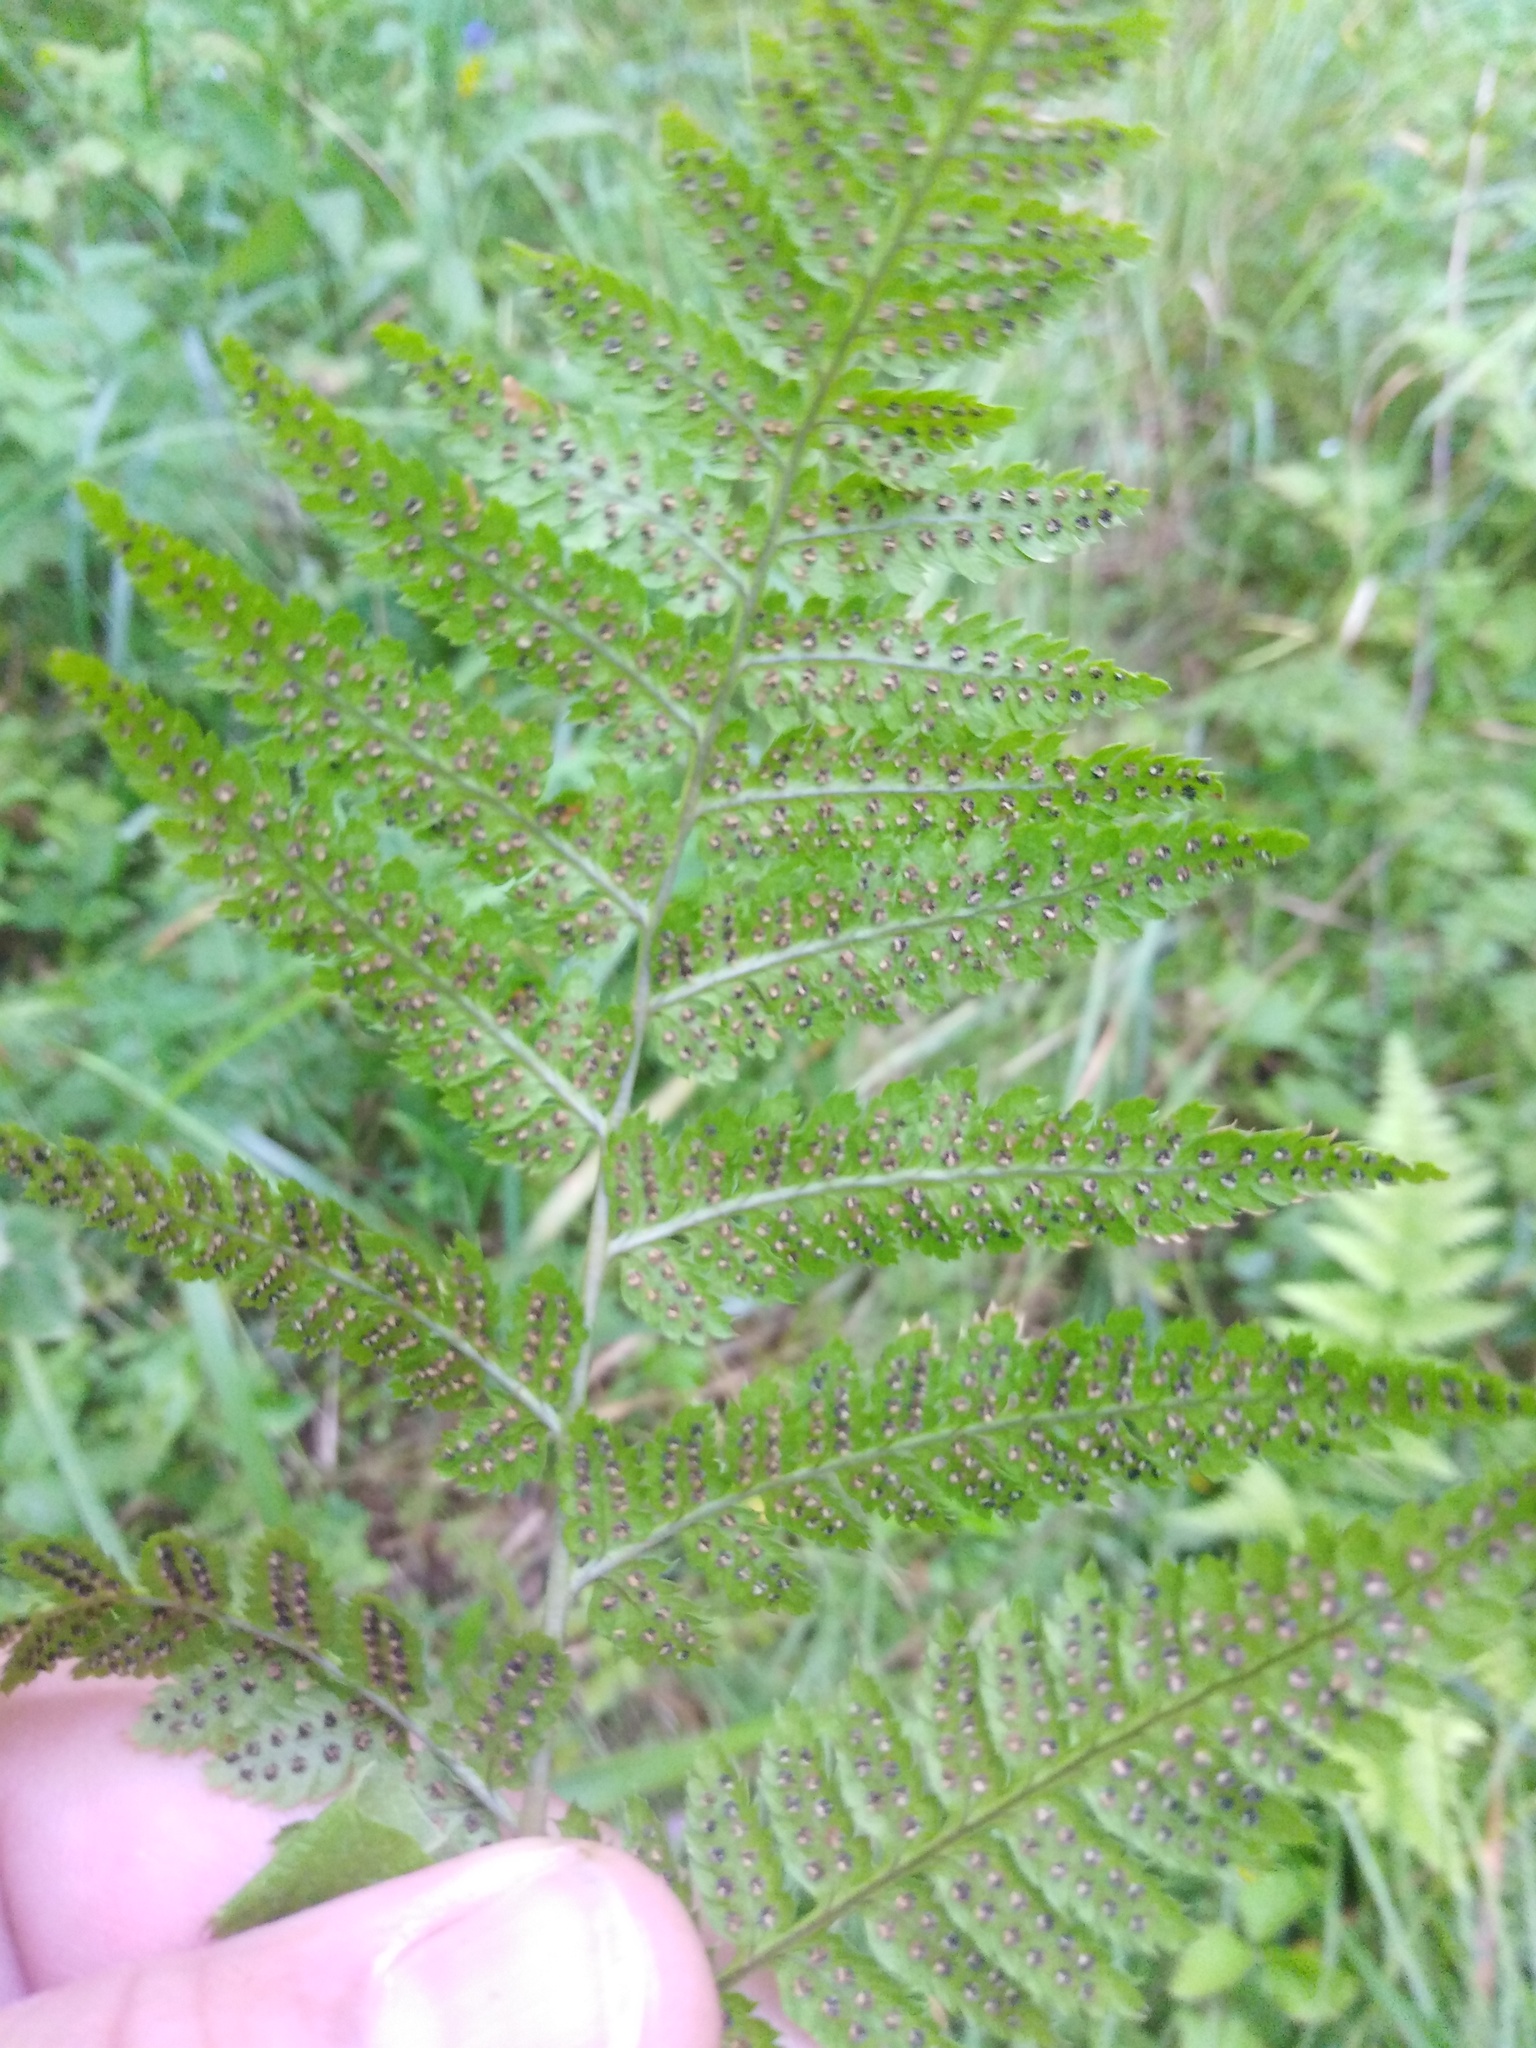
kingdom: Plantae
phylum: Tracheophyta
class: Polypodiopsida
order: Polypodiales
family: Dryopteridaceae
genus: Dryopteris
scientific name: Dryopteris carthusiana
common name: Narrow buckler-fern
